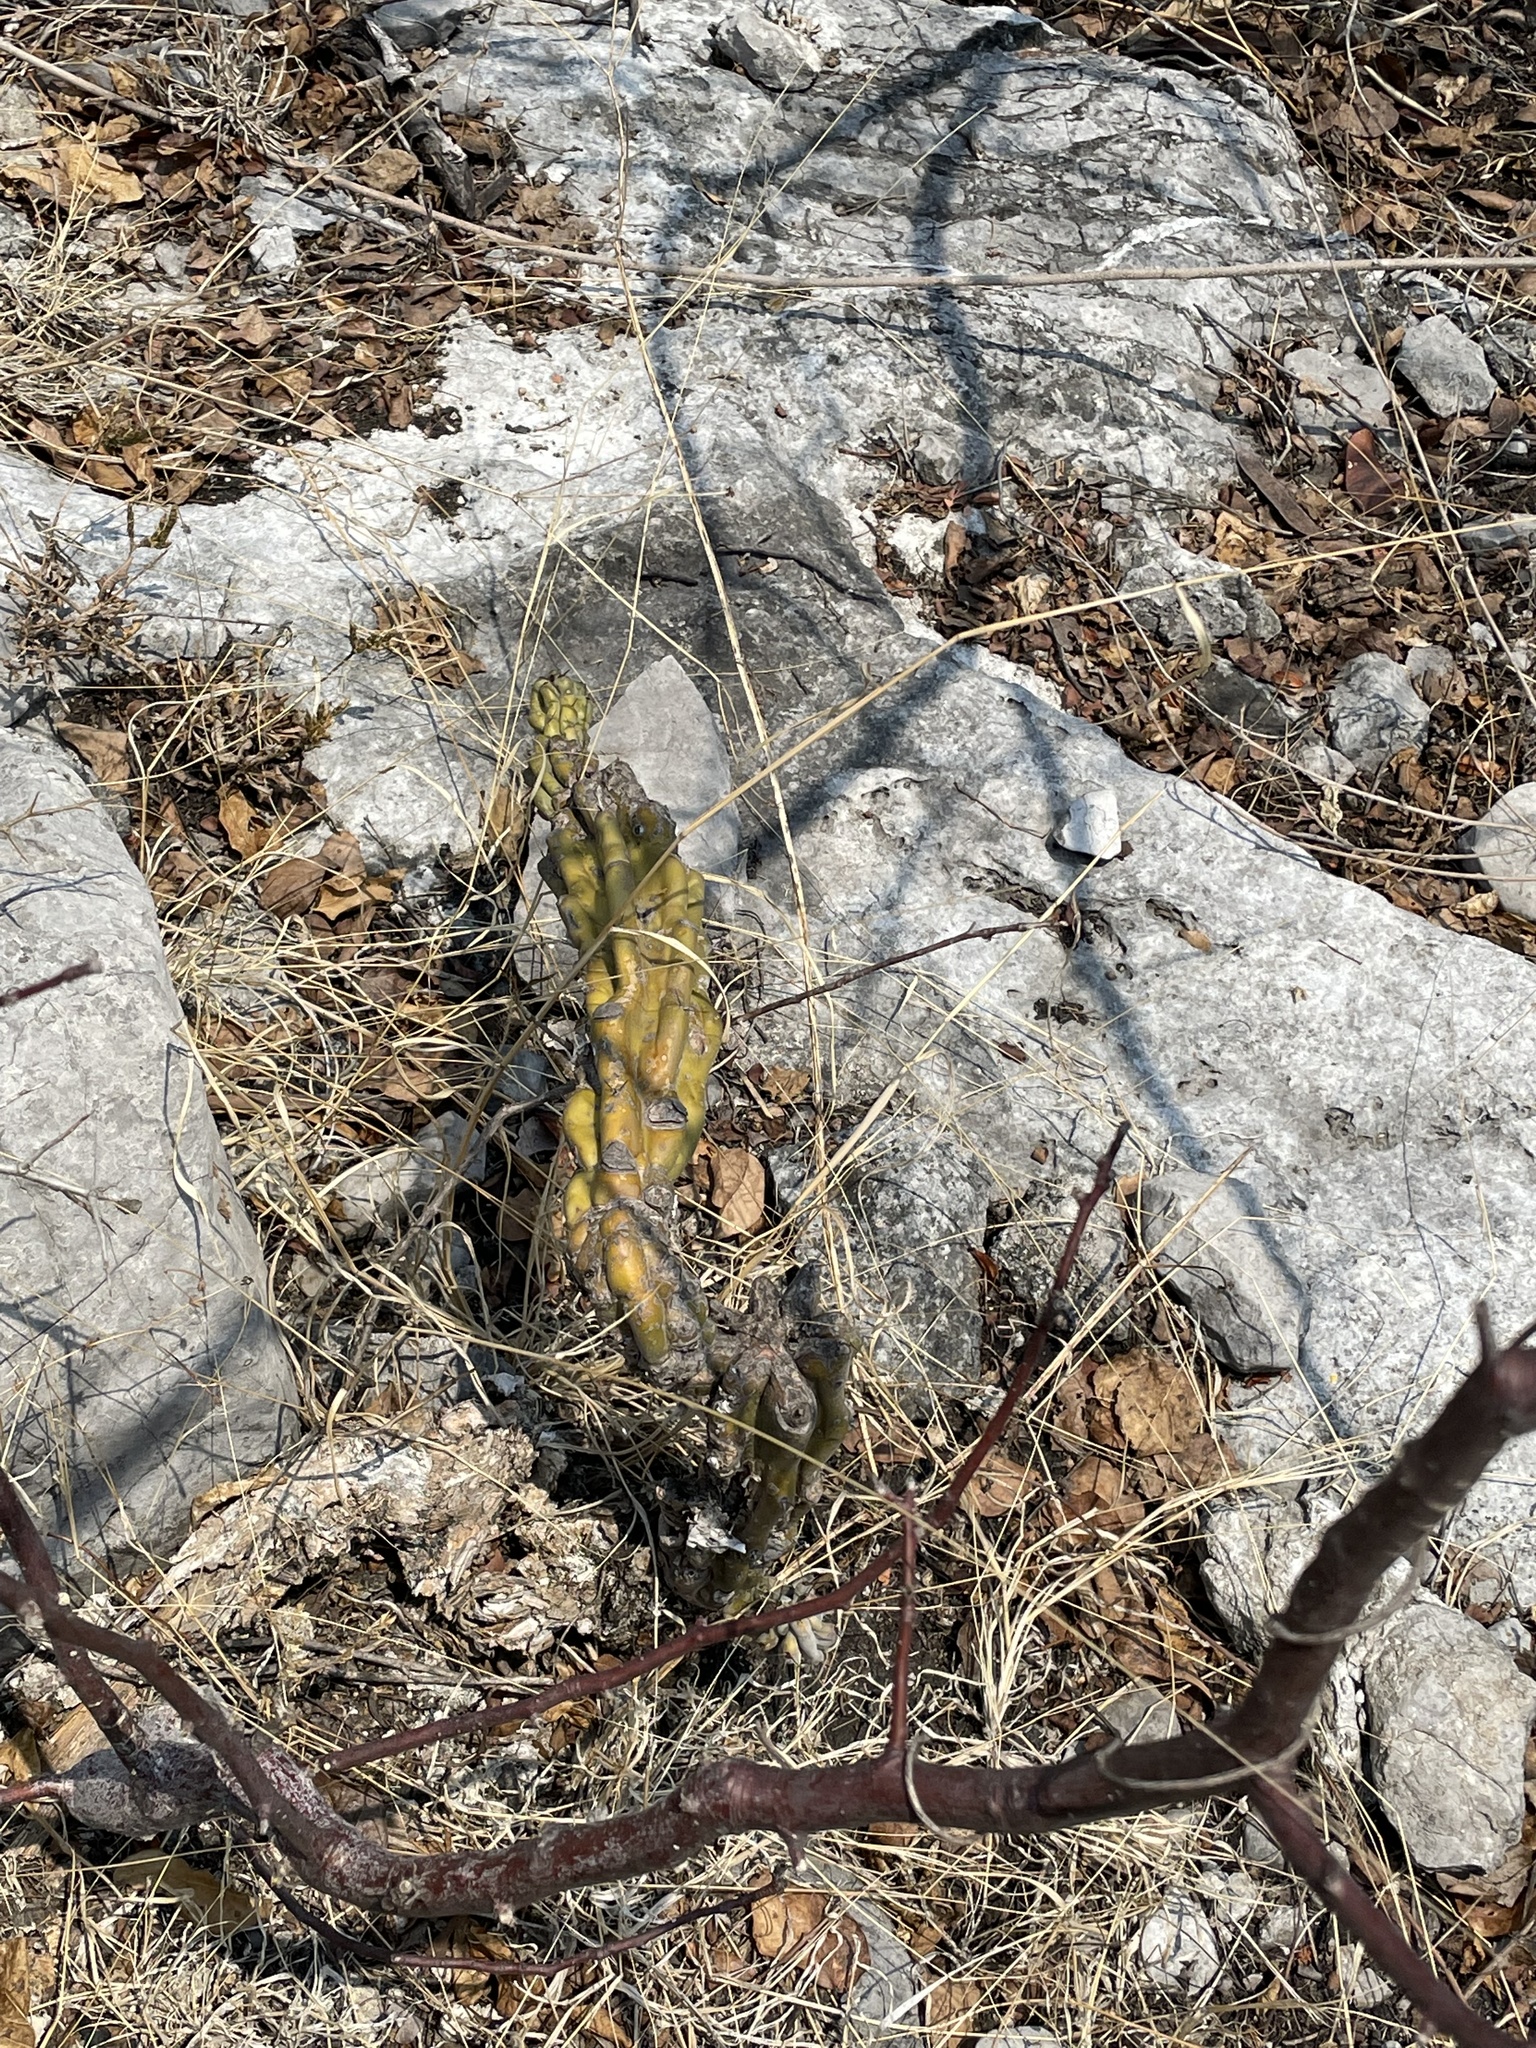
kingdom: Plantae
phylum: Tracheophyta
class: Magnoliopsida
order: Caryophyllales
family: Cactaceae
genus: Stenocereus
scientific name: Stenocereus beneckei
